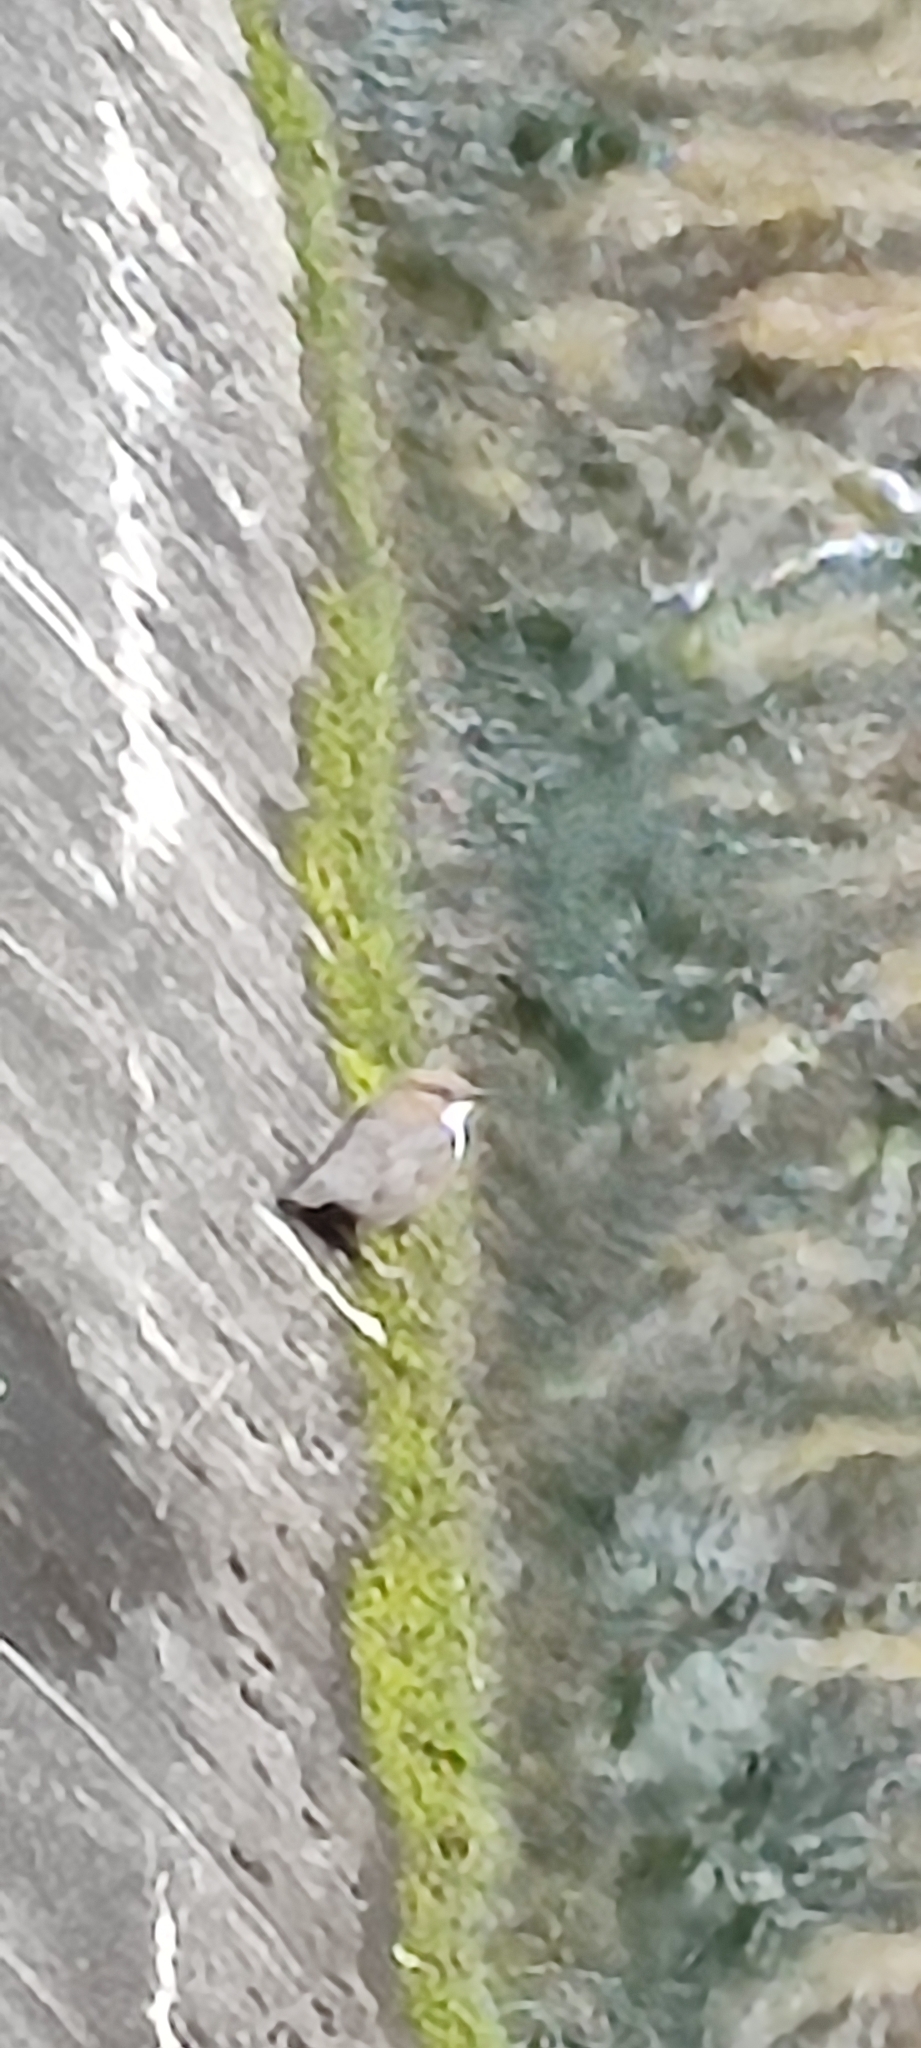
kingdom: Animalia
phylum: Chordata
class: Aves
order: Passeriformes
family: Cinclidae
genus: Cinclus
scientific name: Cinclus cinclus
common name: White-throated dipper
